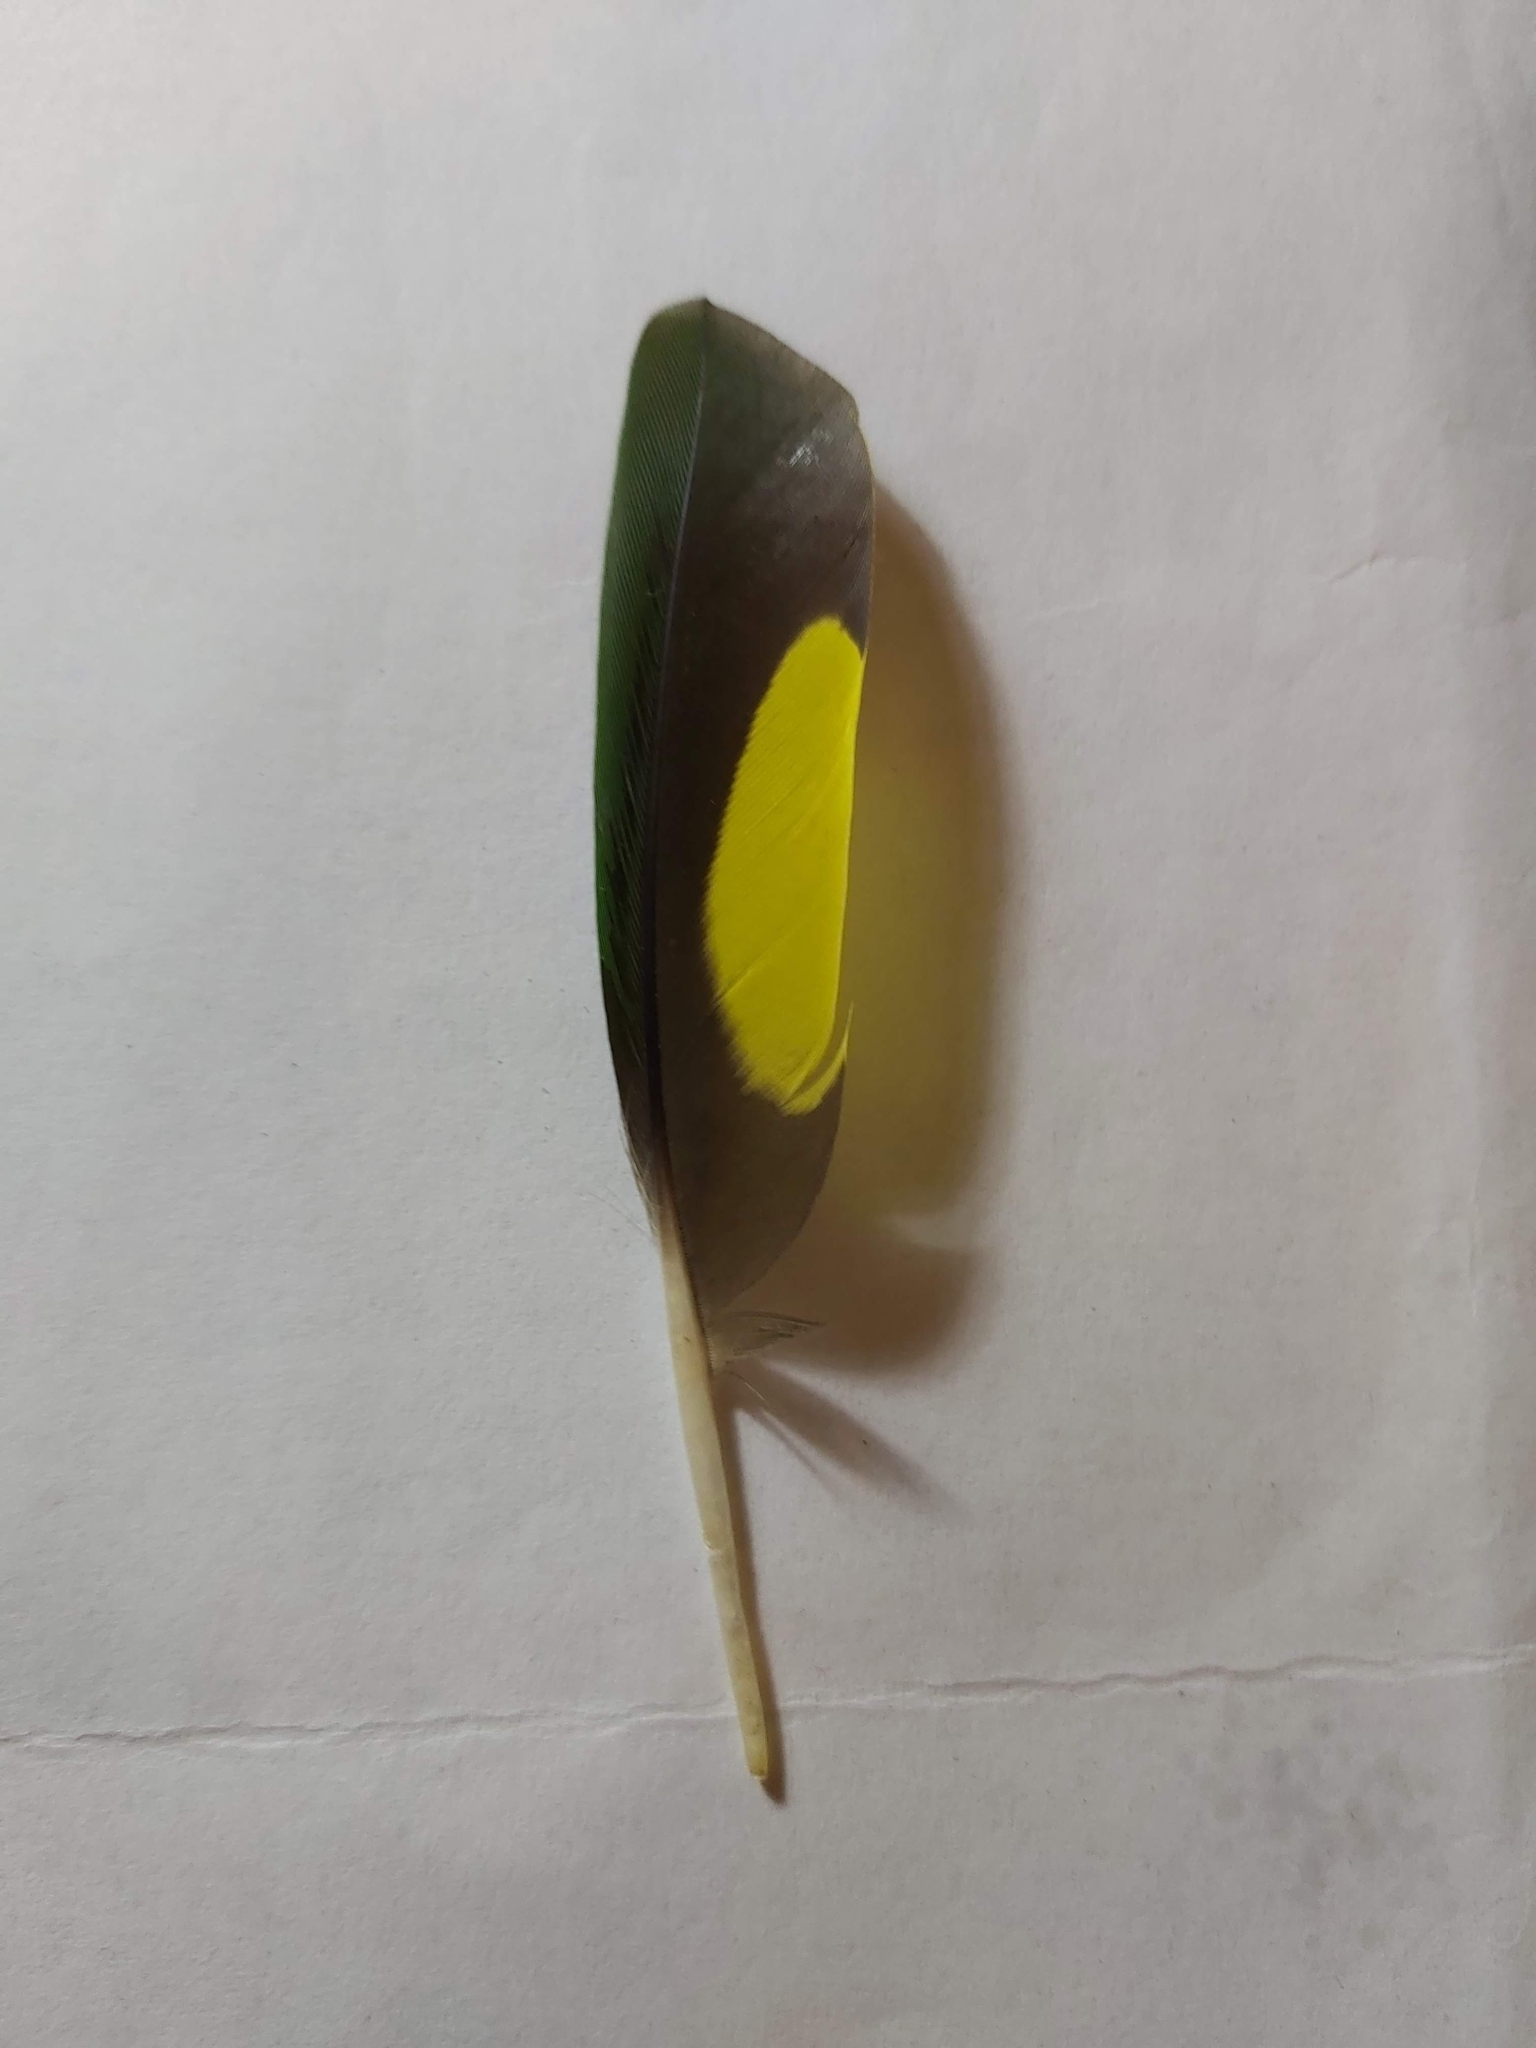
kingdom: Animalia
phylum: Chordata
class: Aves
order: Psittaciformes
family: Psittacidae
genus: Trichoglossus
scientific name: Trichoglossus haematodus
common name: Coconut lorikeet
